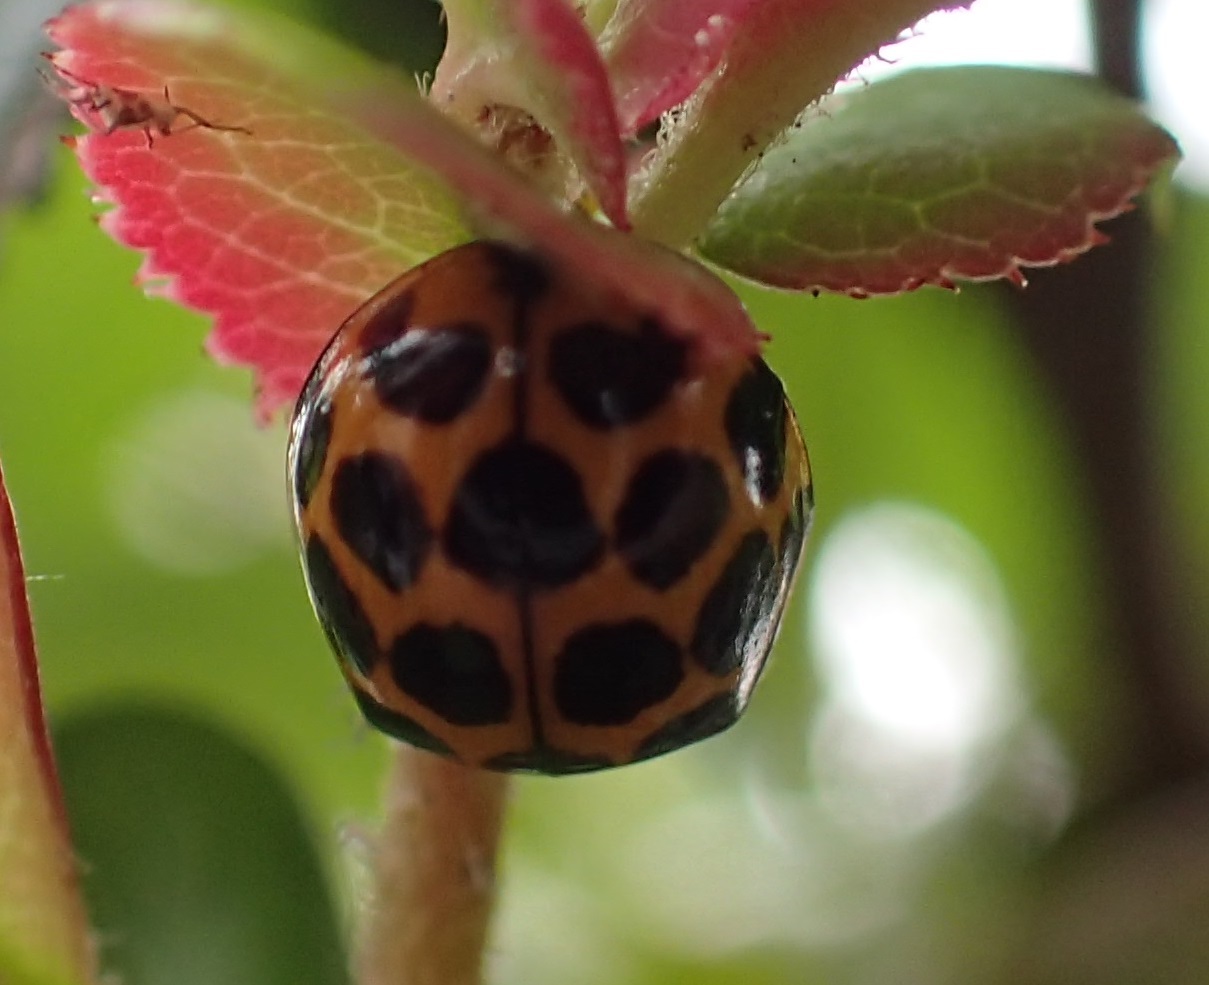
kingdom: Animalia
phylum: Arthropoda
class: Insecta
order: Coleoptera
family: Coccinellidae
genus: Harmonia
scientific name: Harmonia conformis
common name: Common spotted ladybird beetle
